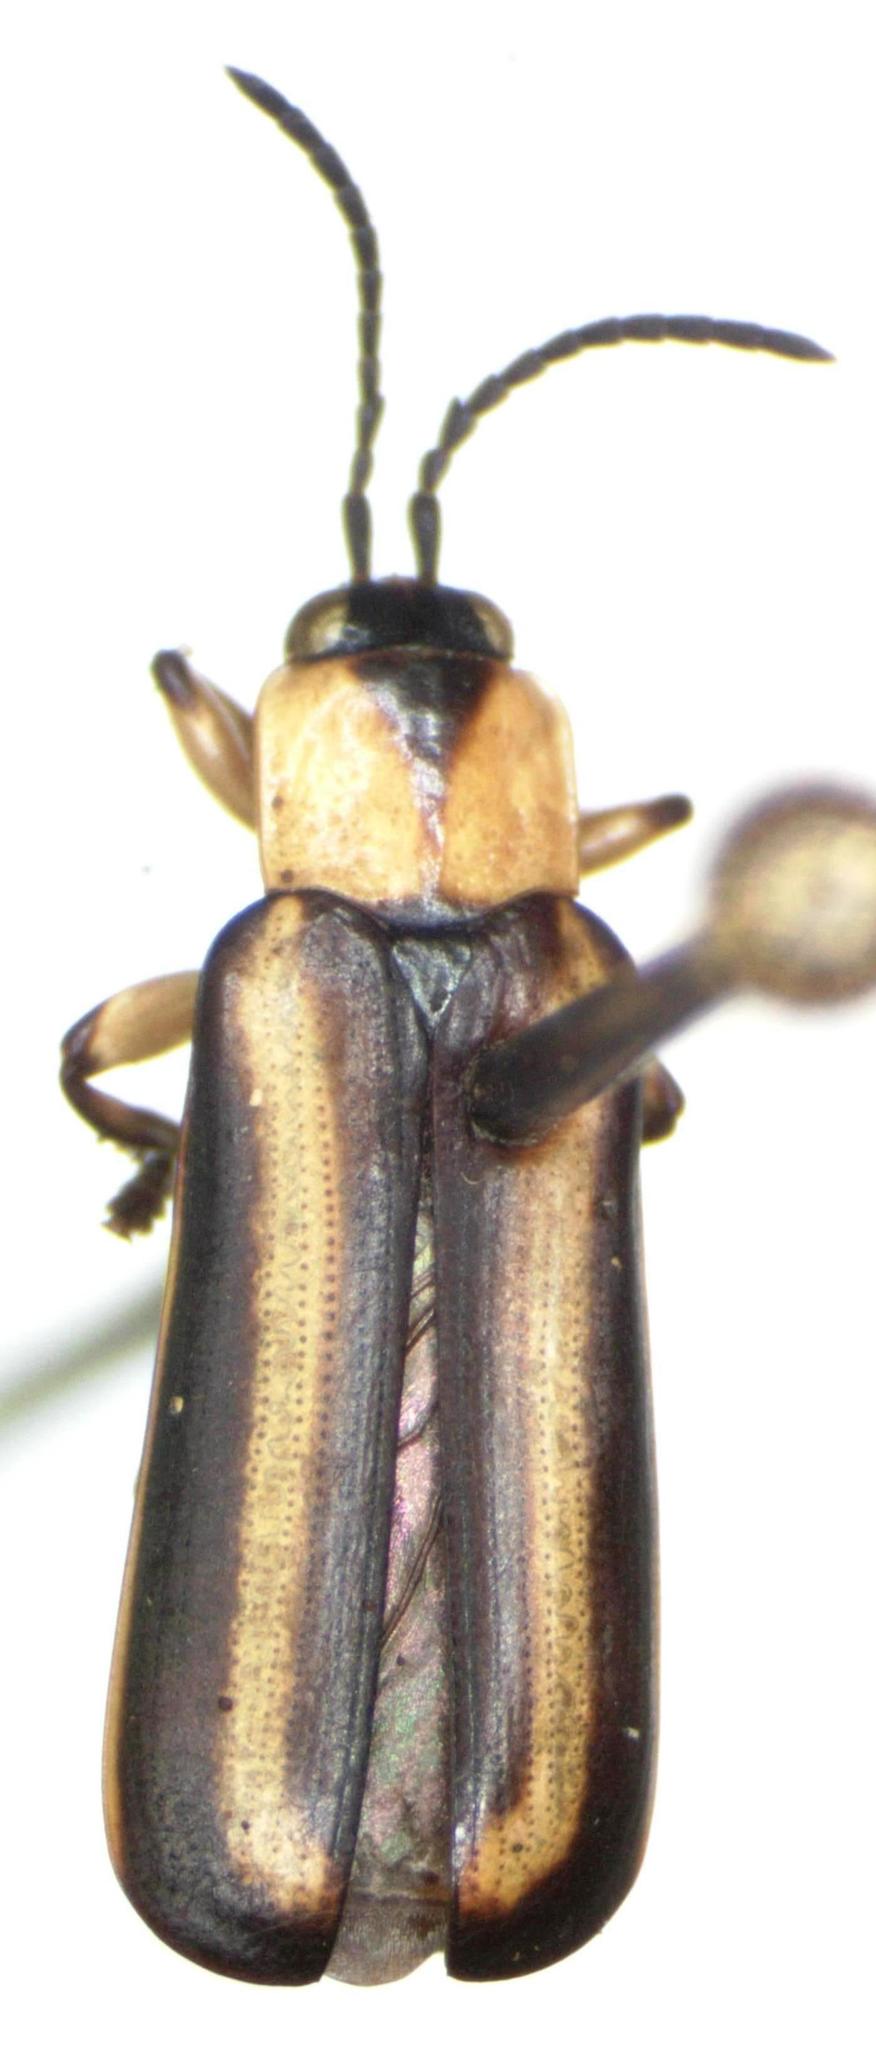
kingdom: Animalia
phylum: Arthropoda
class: Insecta
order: Coleoptera
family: Chrysomelidae
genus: Cephaloleia
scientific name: Cephaloleia belti
